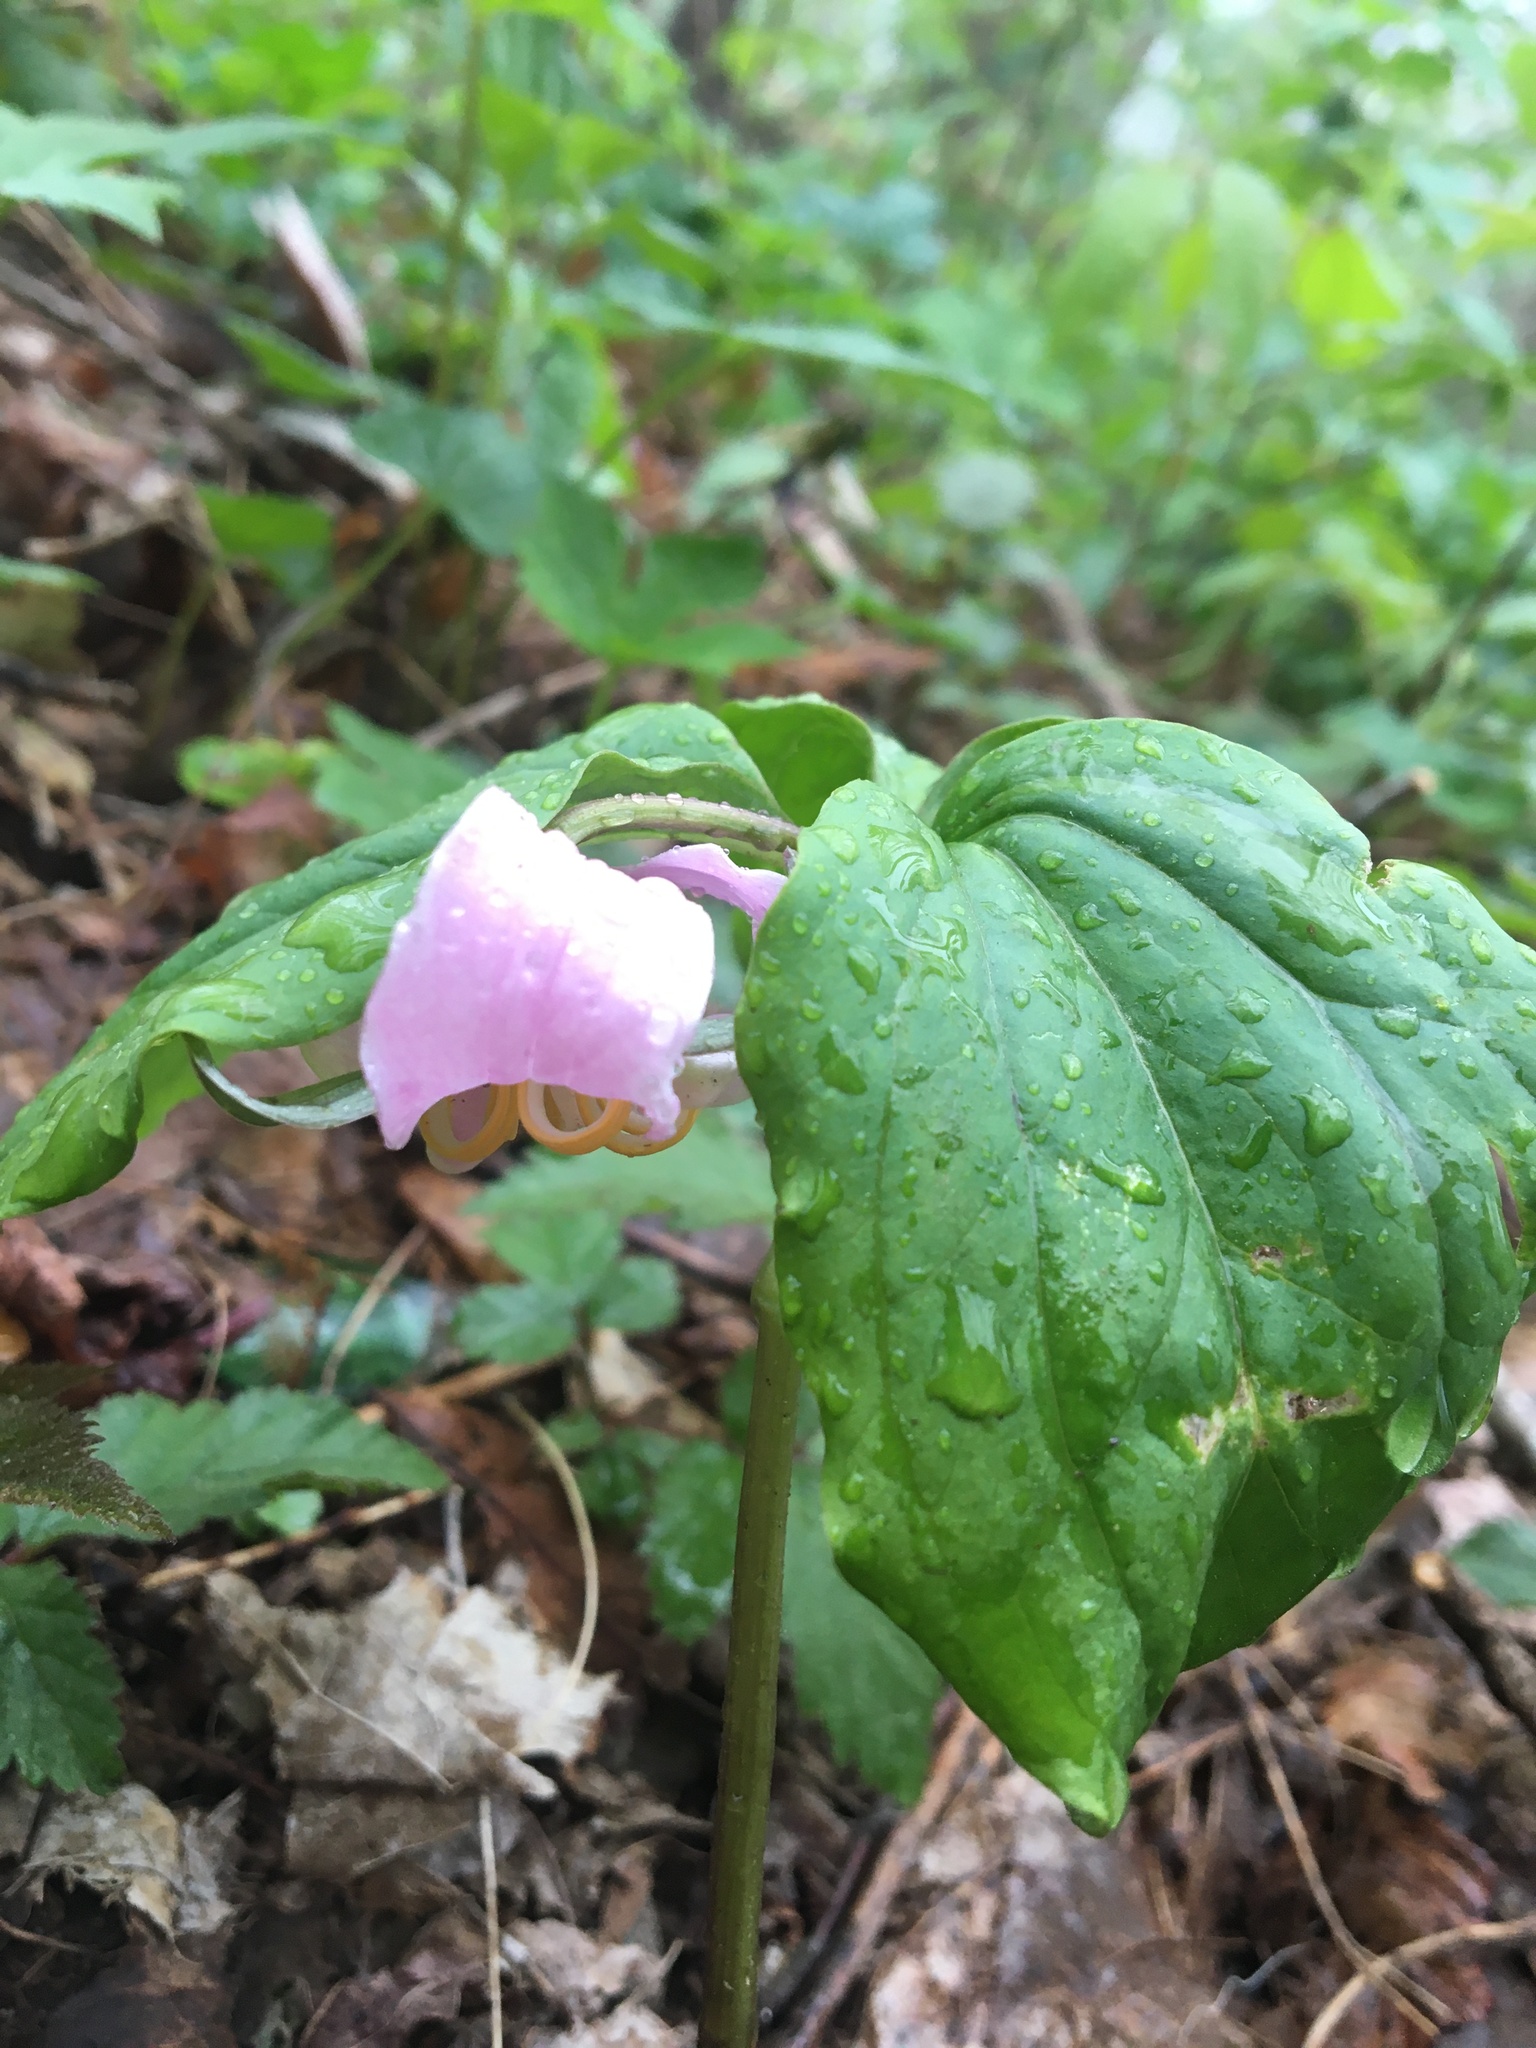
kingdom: Plantae
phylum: Tracheophyta
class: Liliopsida
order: Liliales
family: Melanthiaceae
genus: Trillium
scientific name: Trillium catesbaei
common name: Bashful trillium
